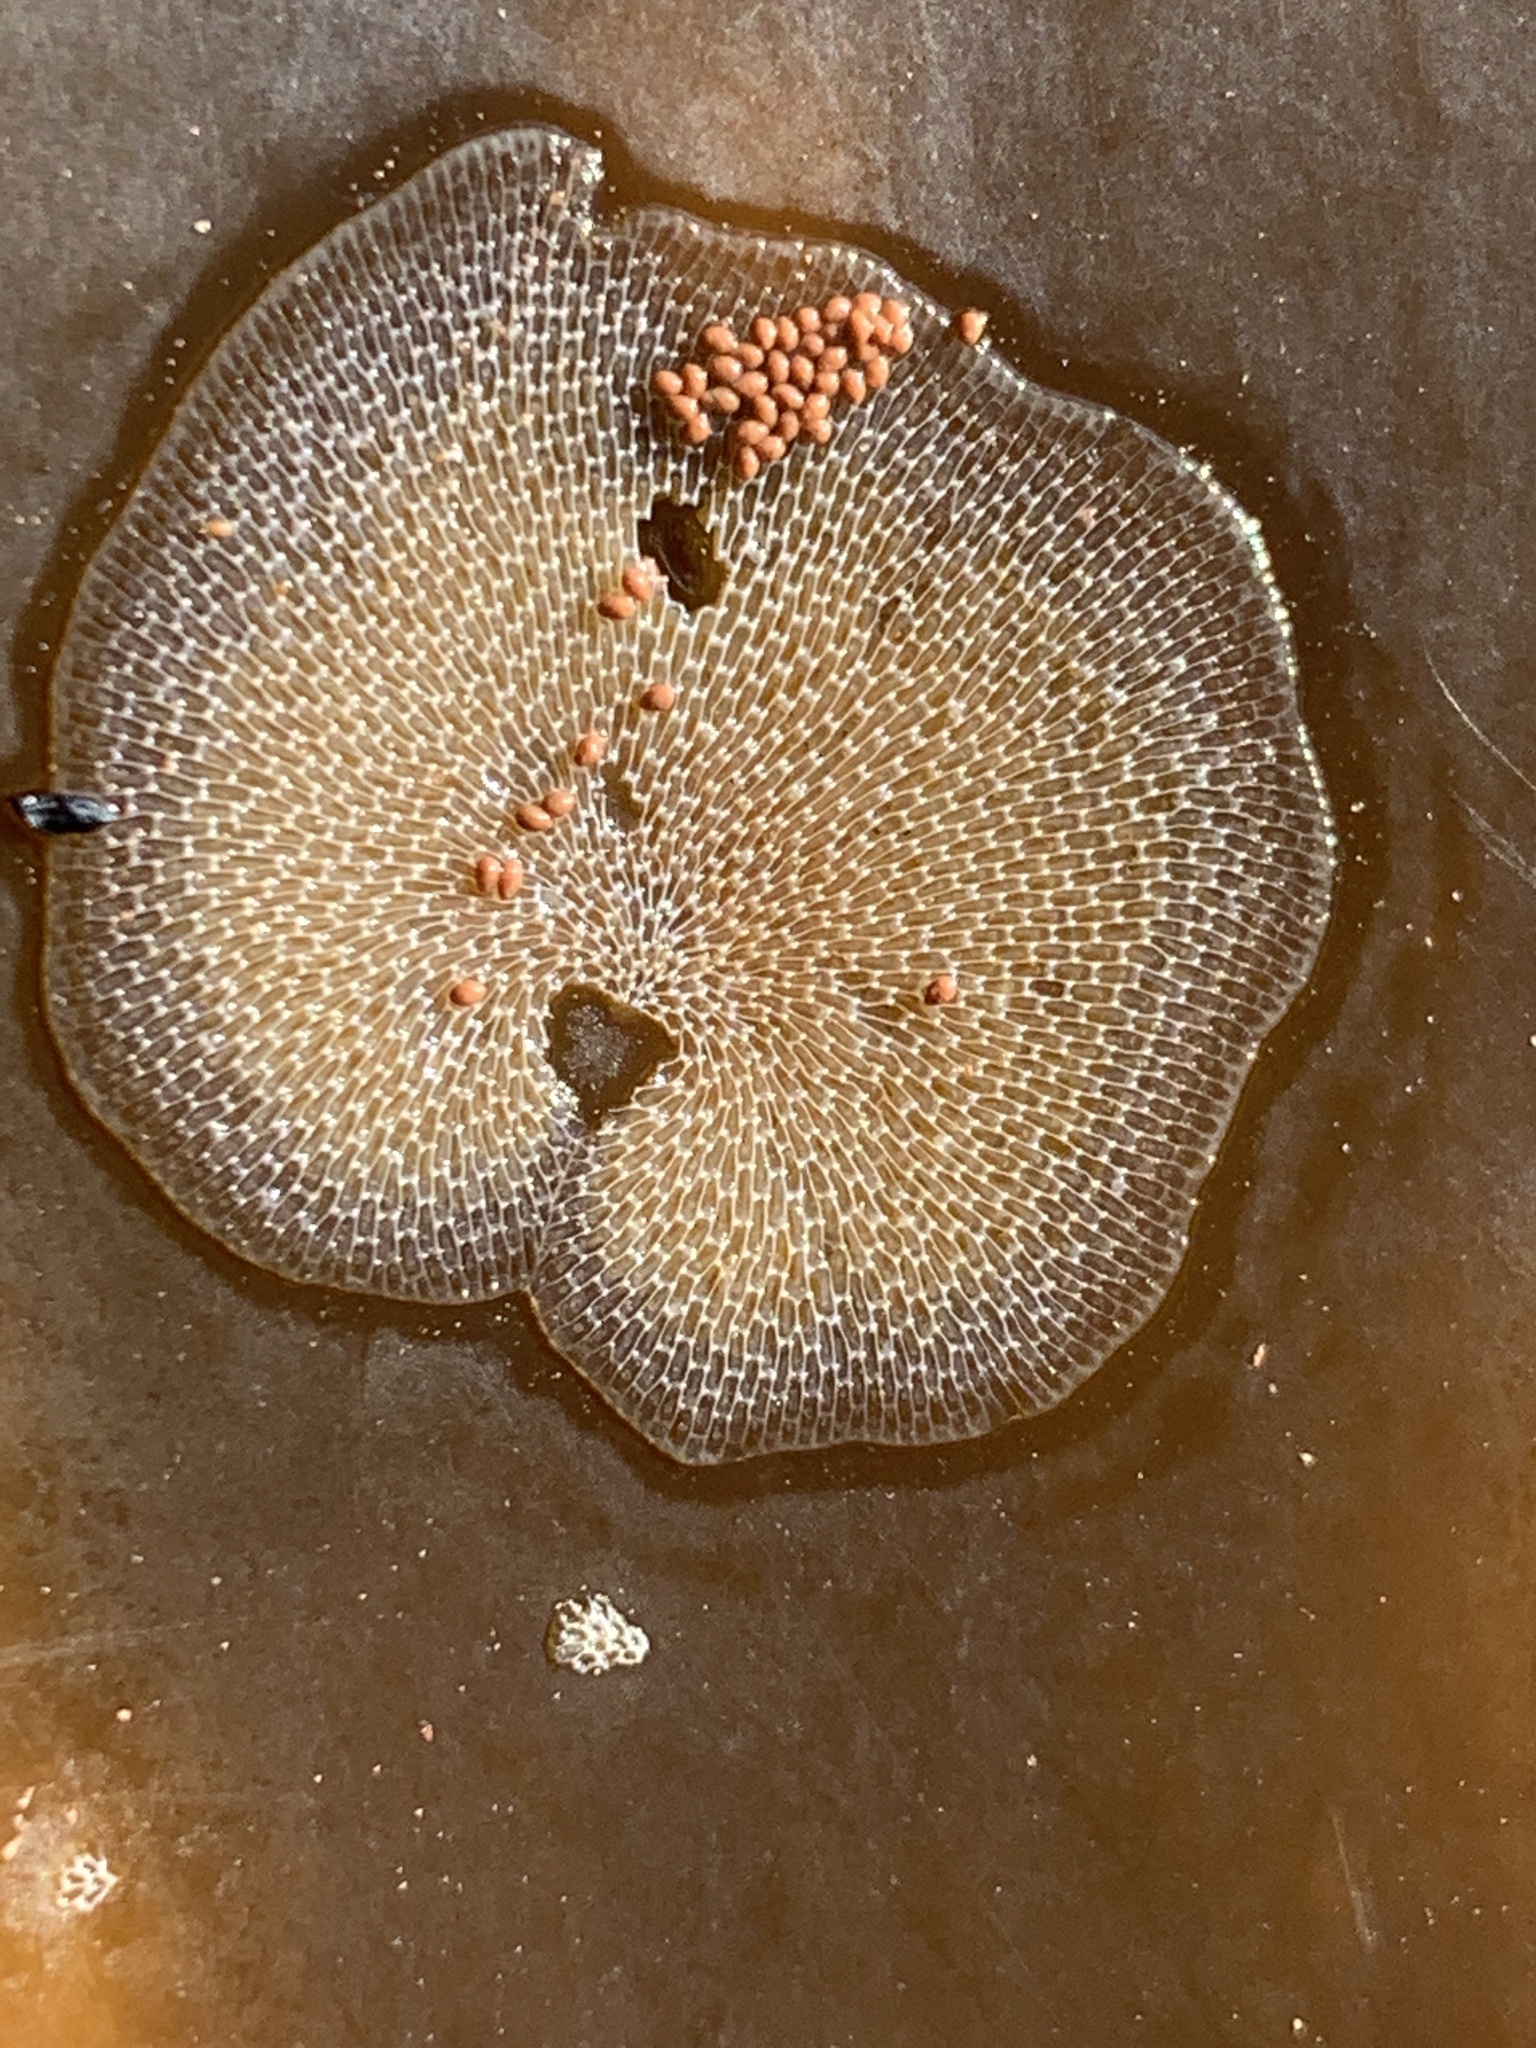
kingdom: Animalia
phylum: Bryozoa
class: Gymnolaemata
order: Cheilostomatida
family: Membraniporidae
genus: Membranipora
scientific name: Membranipora membranacea
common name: Sea mat
